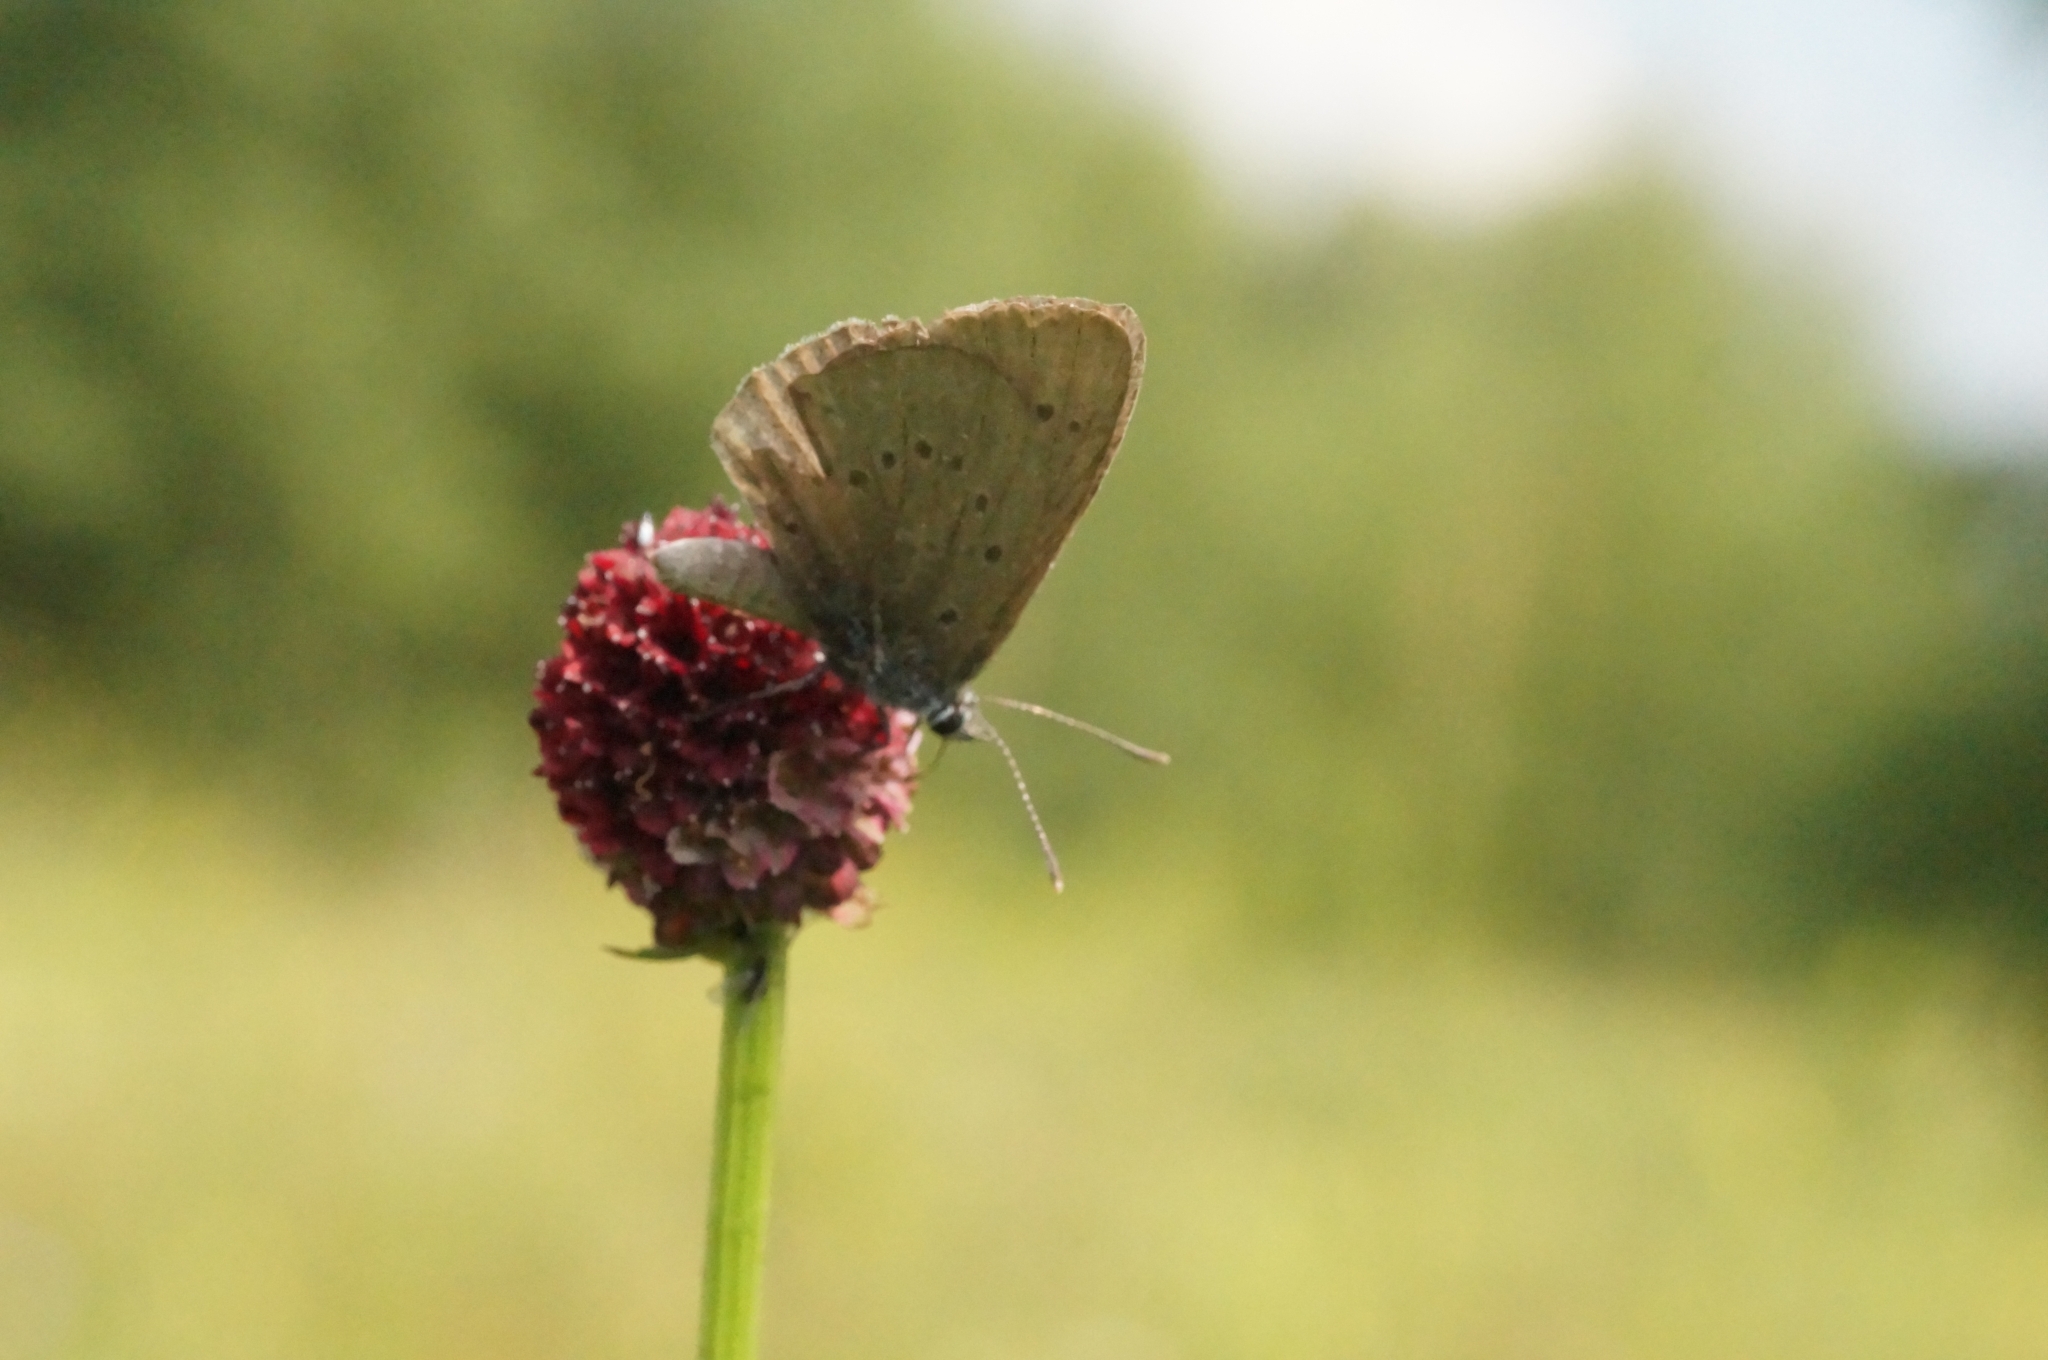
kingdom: Animalia
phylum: Arthropoda
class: Insecta
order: Lepidoptera
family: Lycaenidae
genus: Maculinea
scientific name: Maculinea nausithous
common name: Dusky large blue
